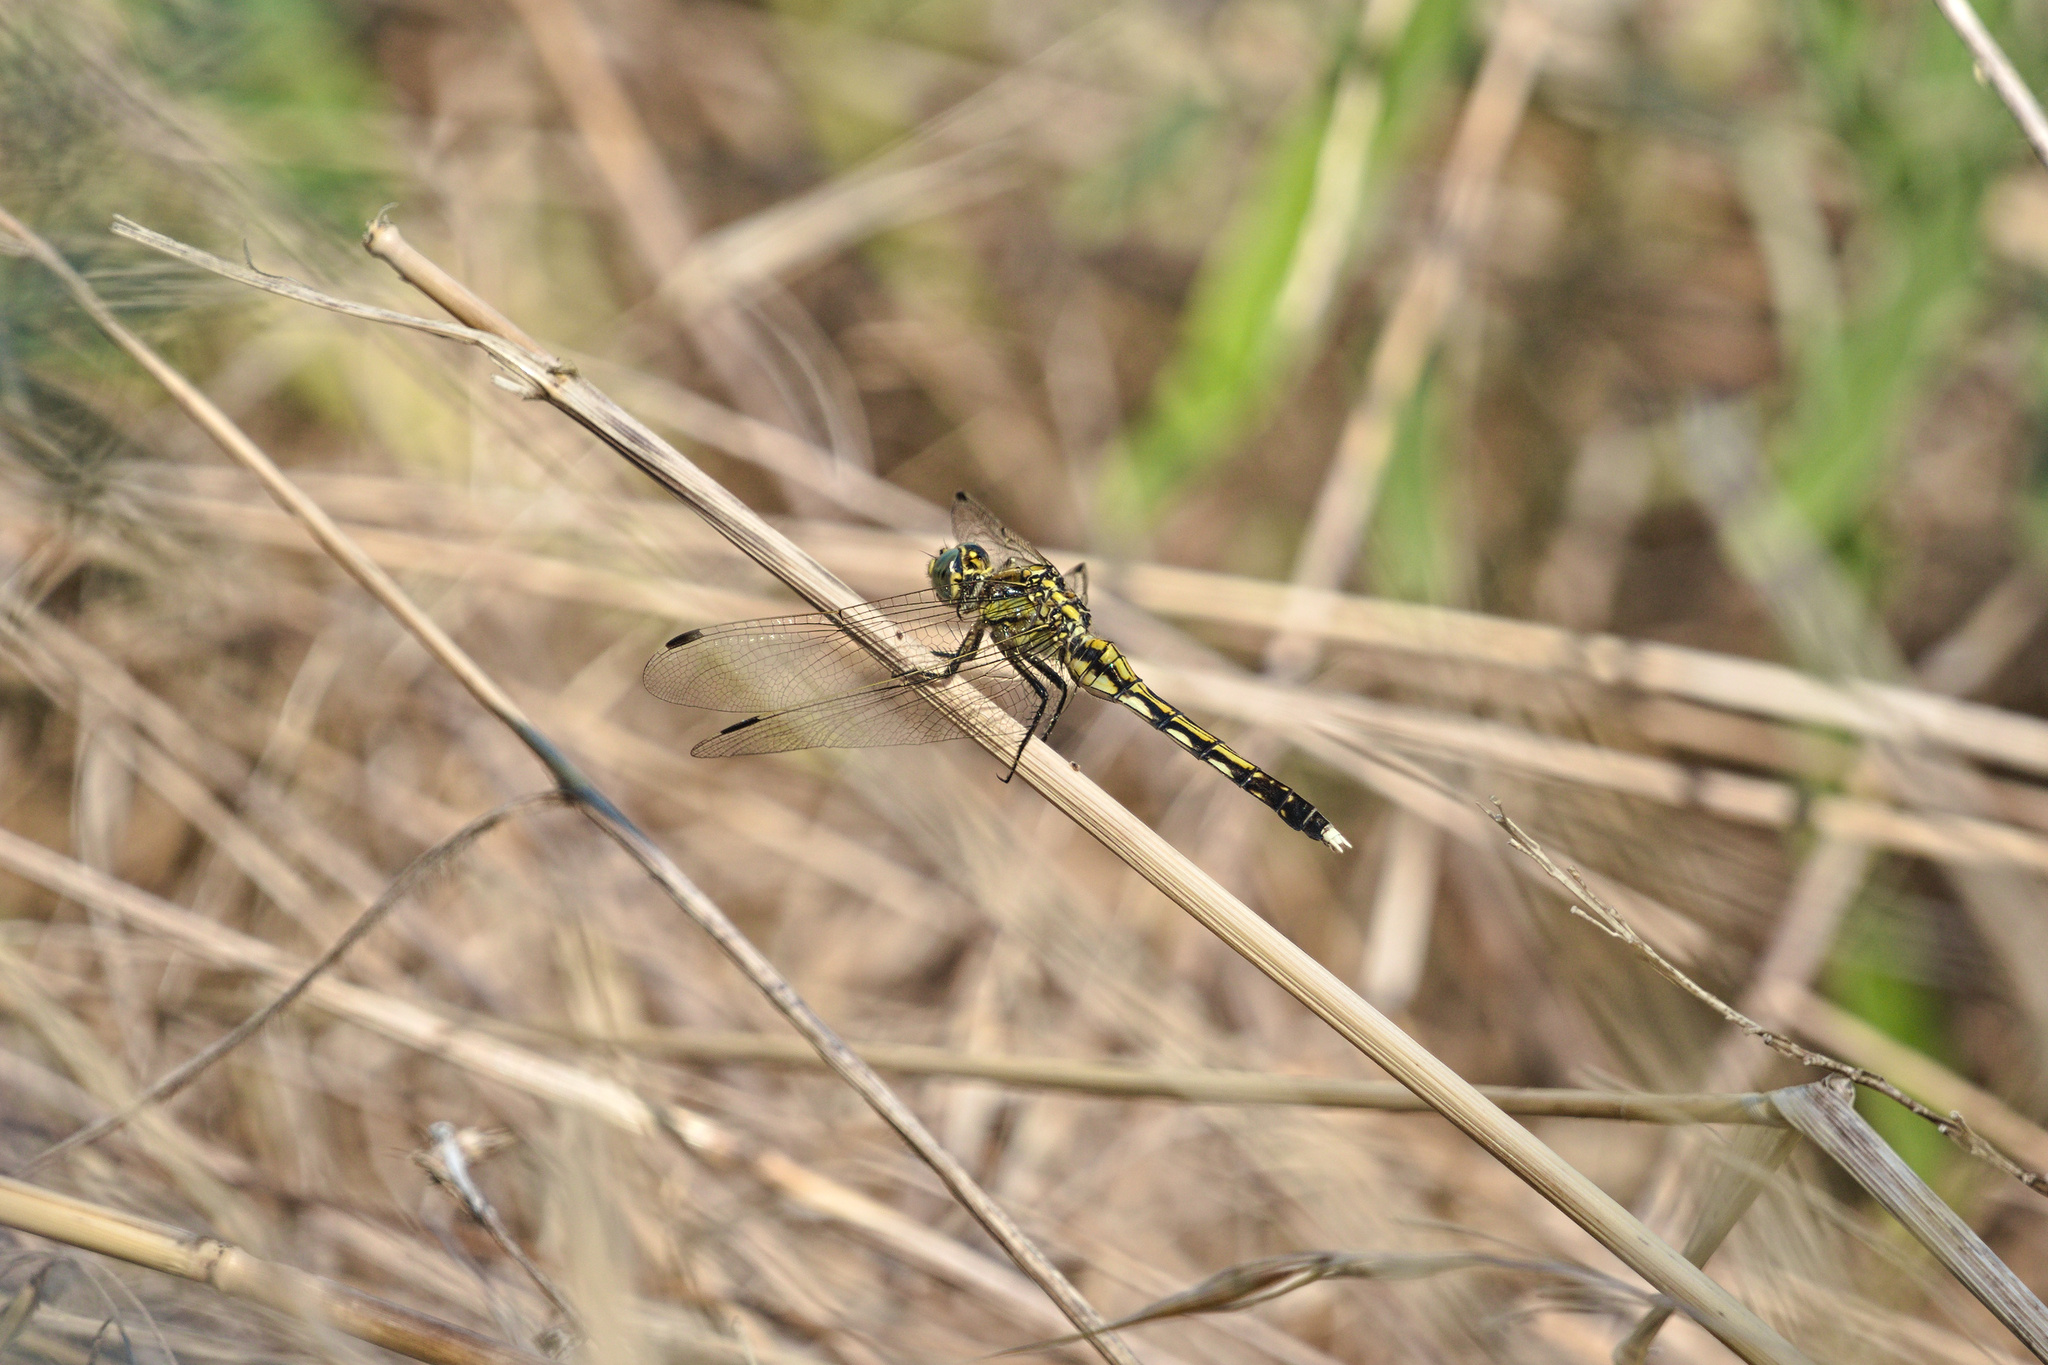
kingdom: Animalia
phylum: Arthropoda
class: Insecta
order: Odonata
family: Libellulidae
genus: Orthetrum
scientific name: Orthetrum albistylum
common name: White-tailed skimmer
